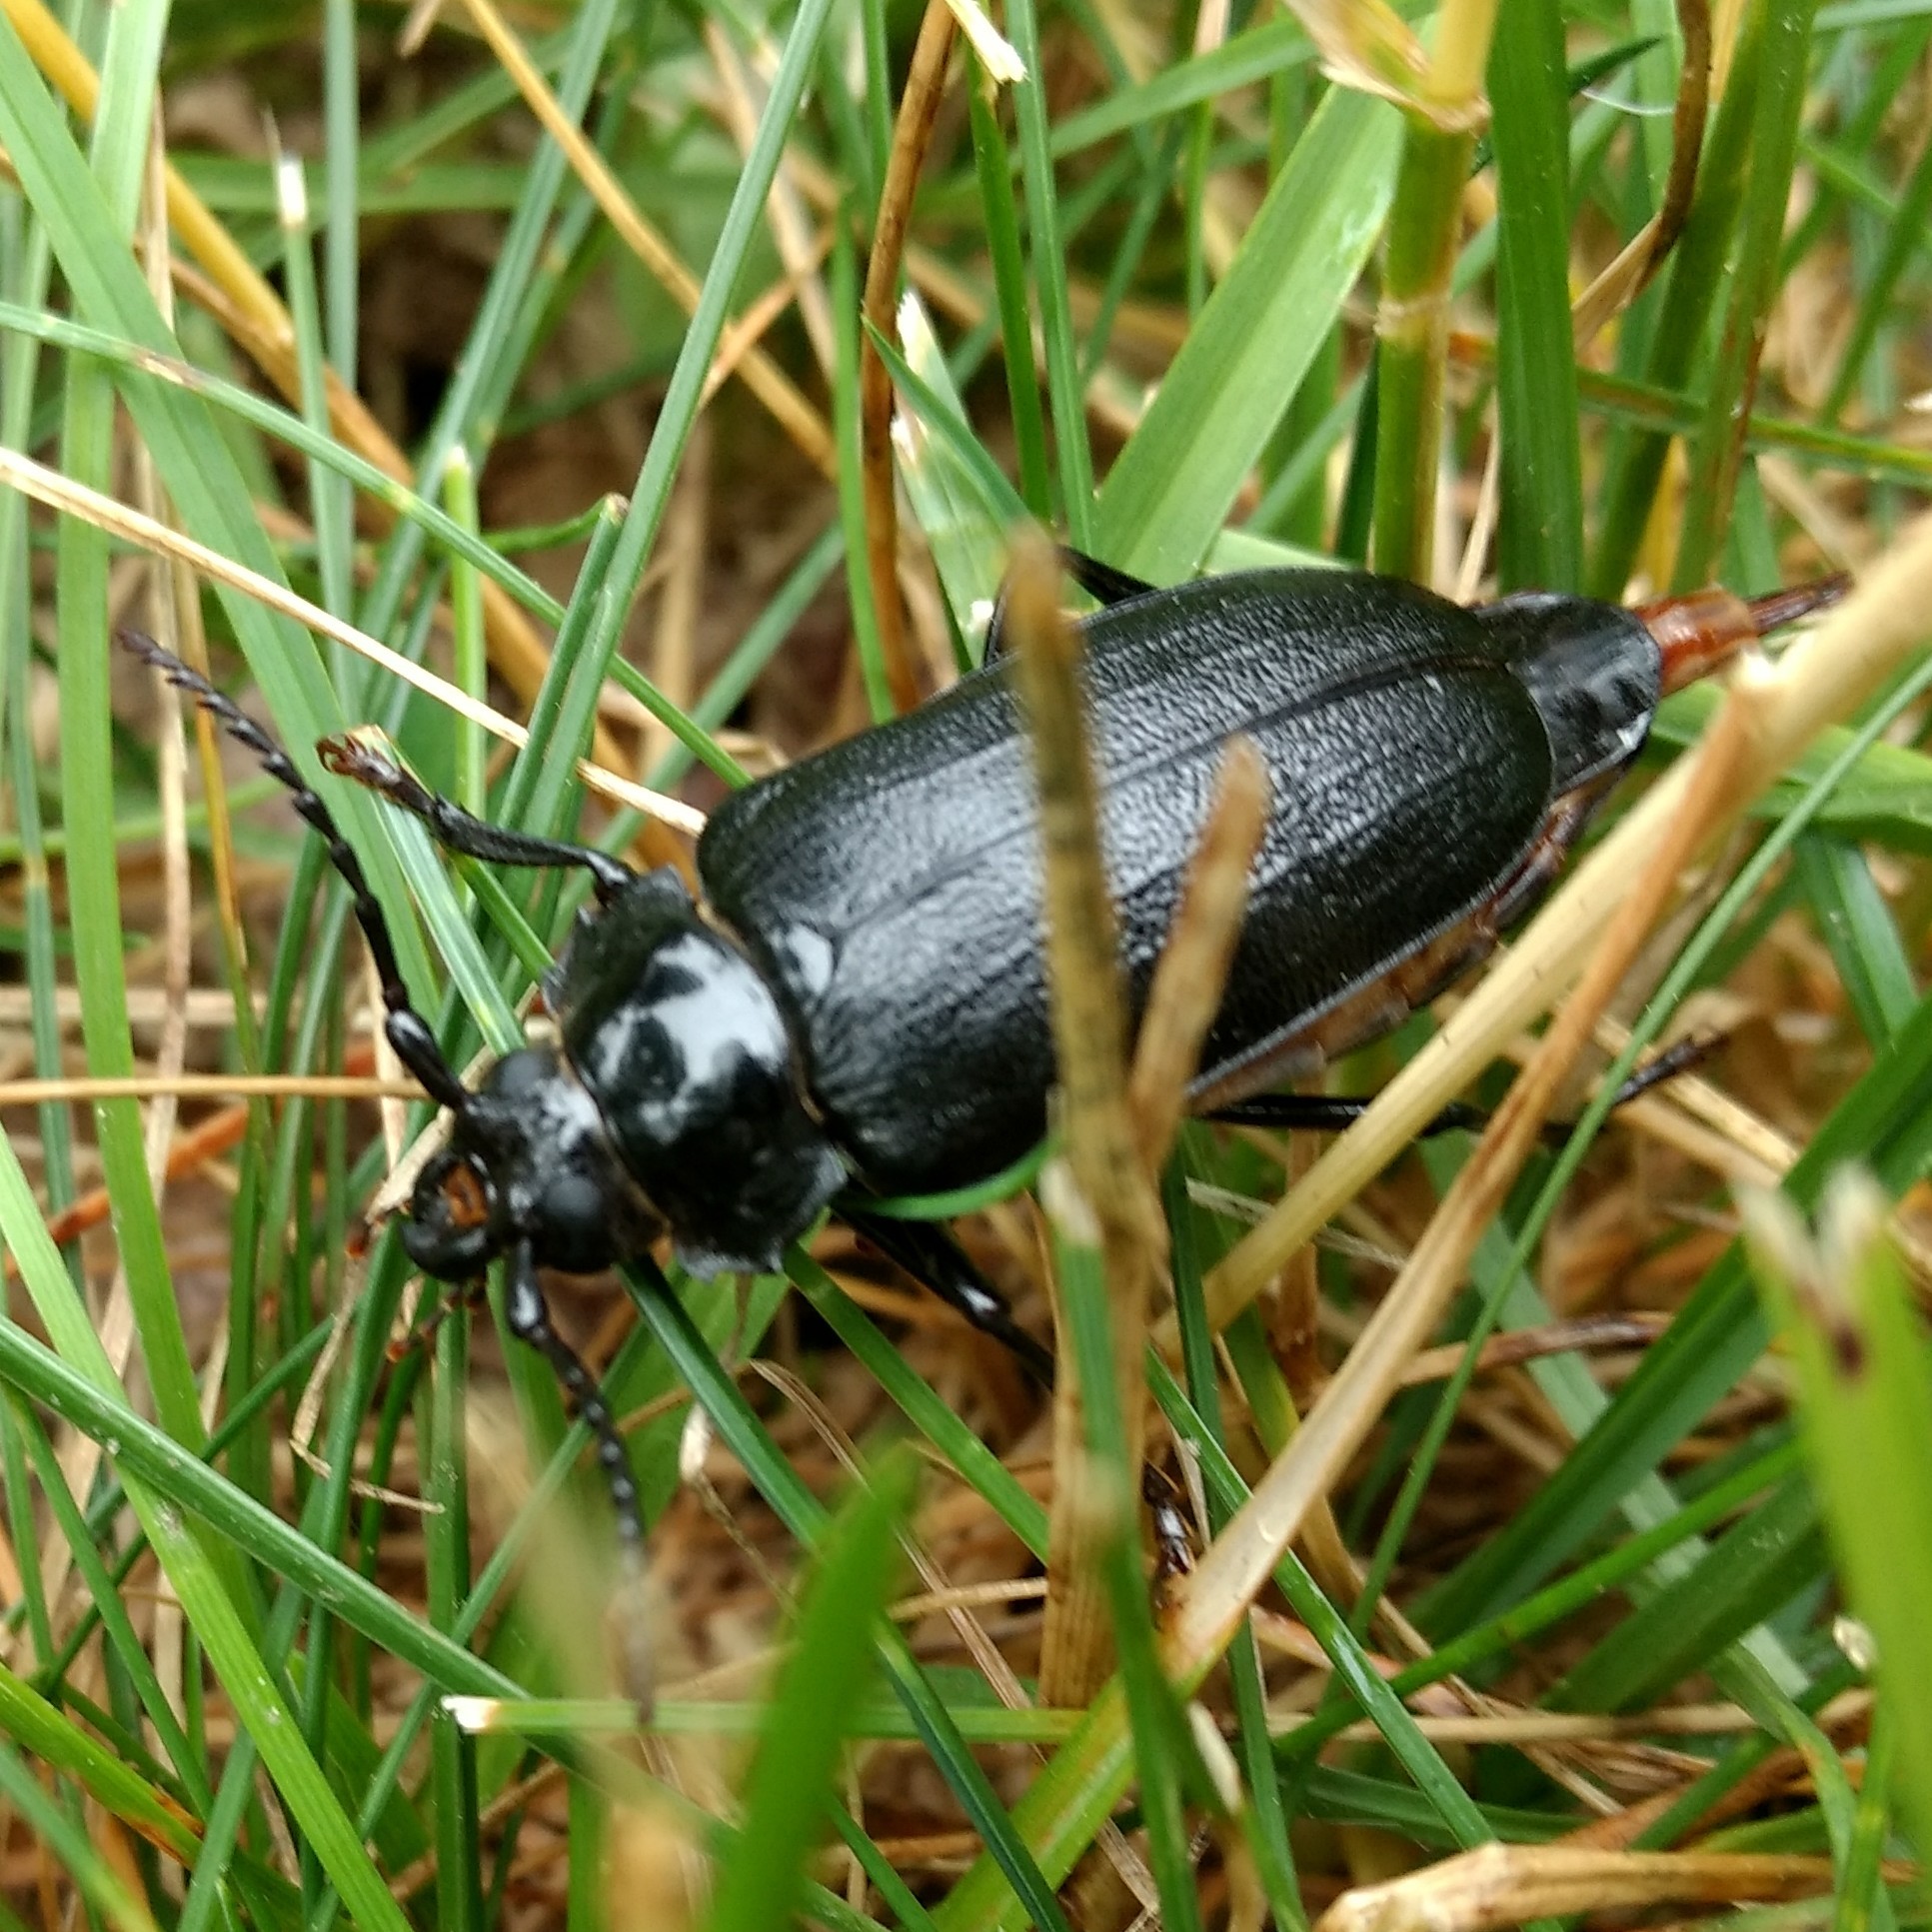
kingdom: Animalia
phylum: Arthropoda
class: Insecta
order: Coleoptera
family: Cerambycidae
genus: Prionus
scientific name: Prionus laticollis
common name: Broad necked prionus
